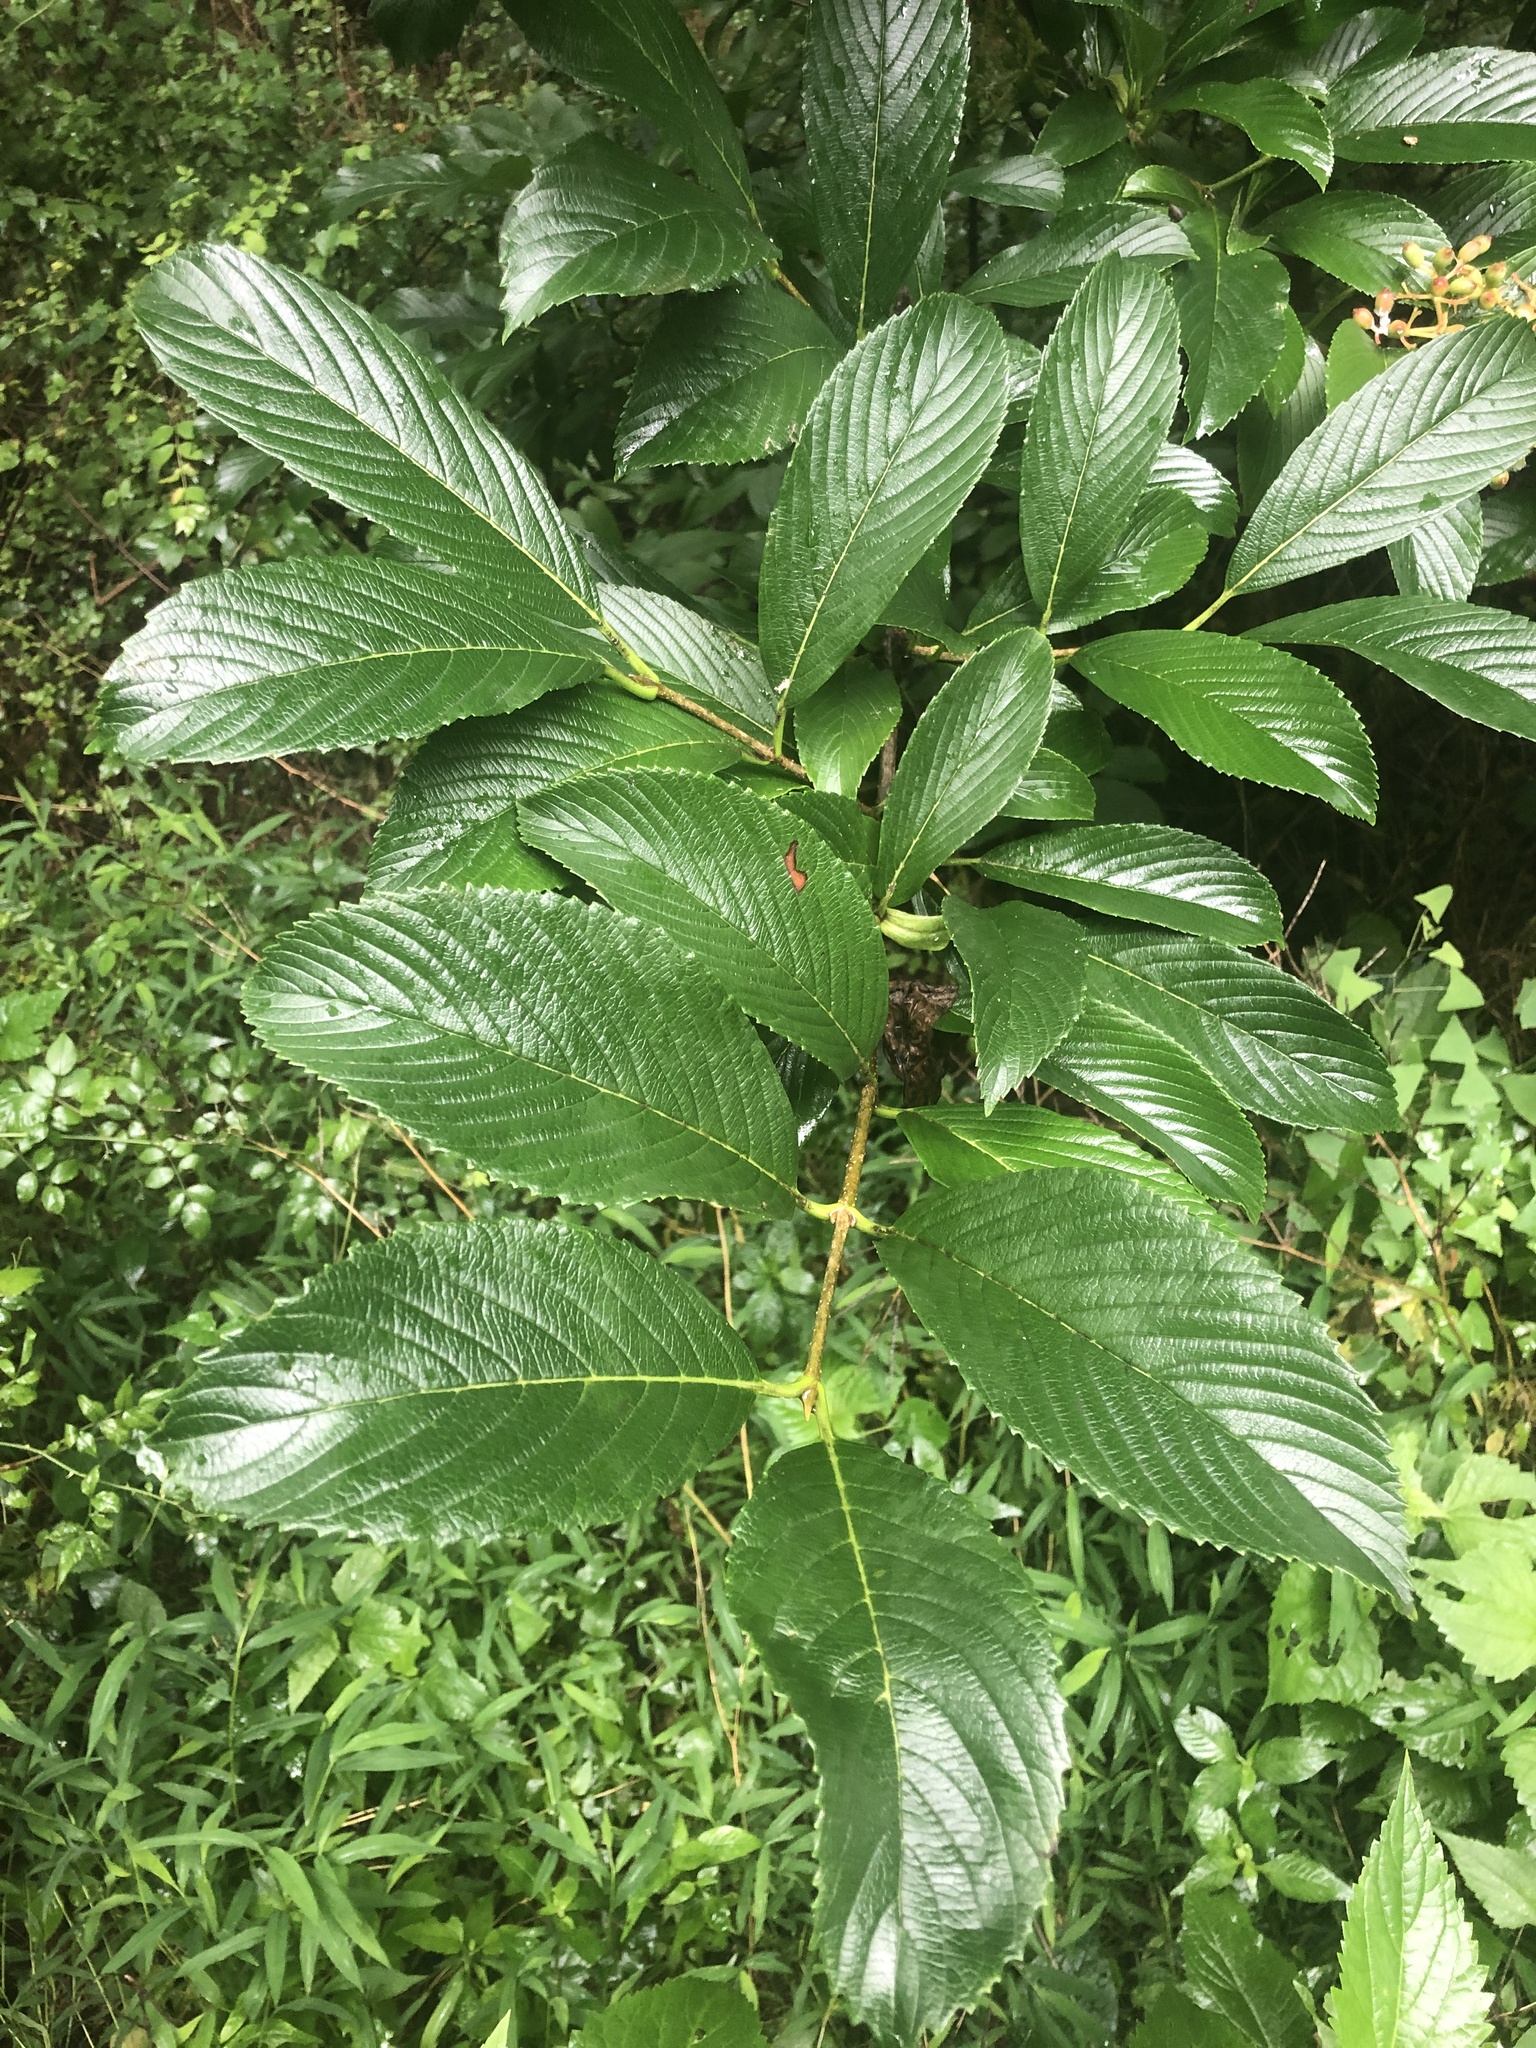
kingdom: Plantae
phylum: Tracheophyta
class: Magnoliopsida
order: Dipsacales
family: Viburnaceae
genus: Viburnum
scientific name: Viburnum sieboldii
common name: Siebold's arrowwood
